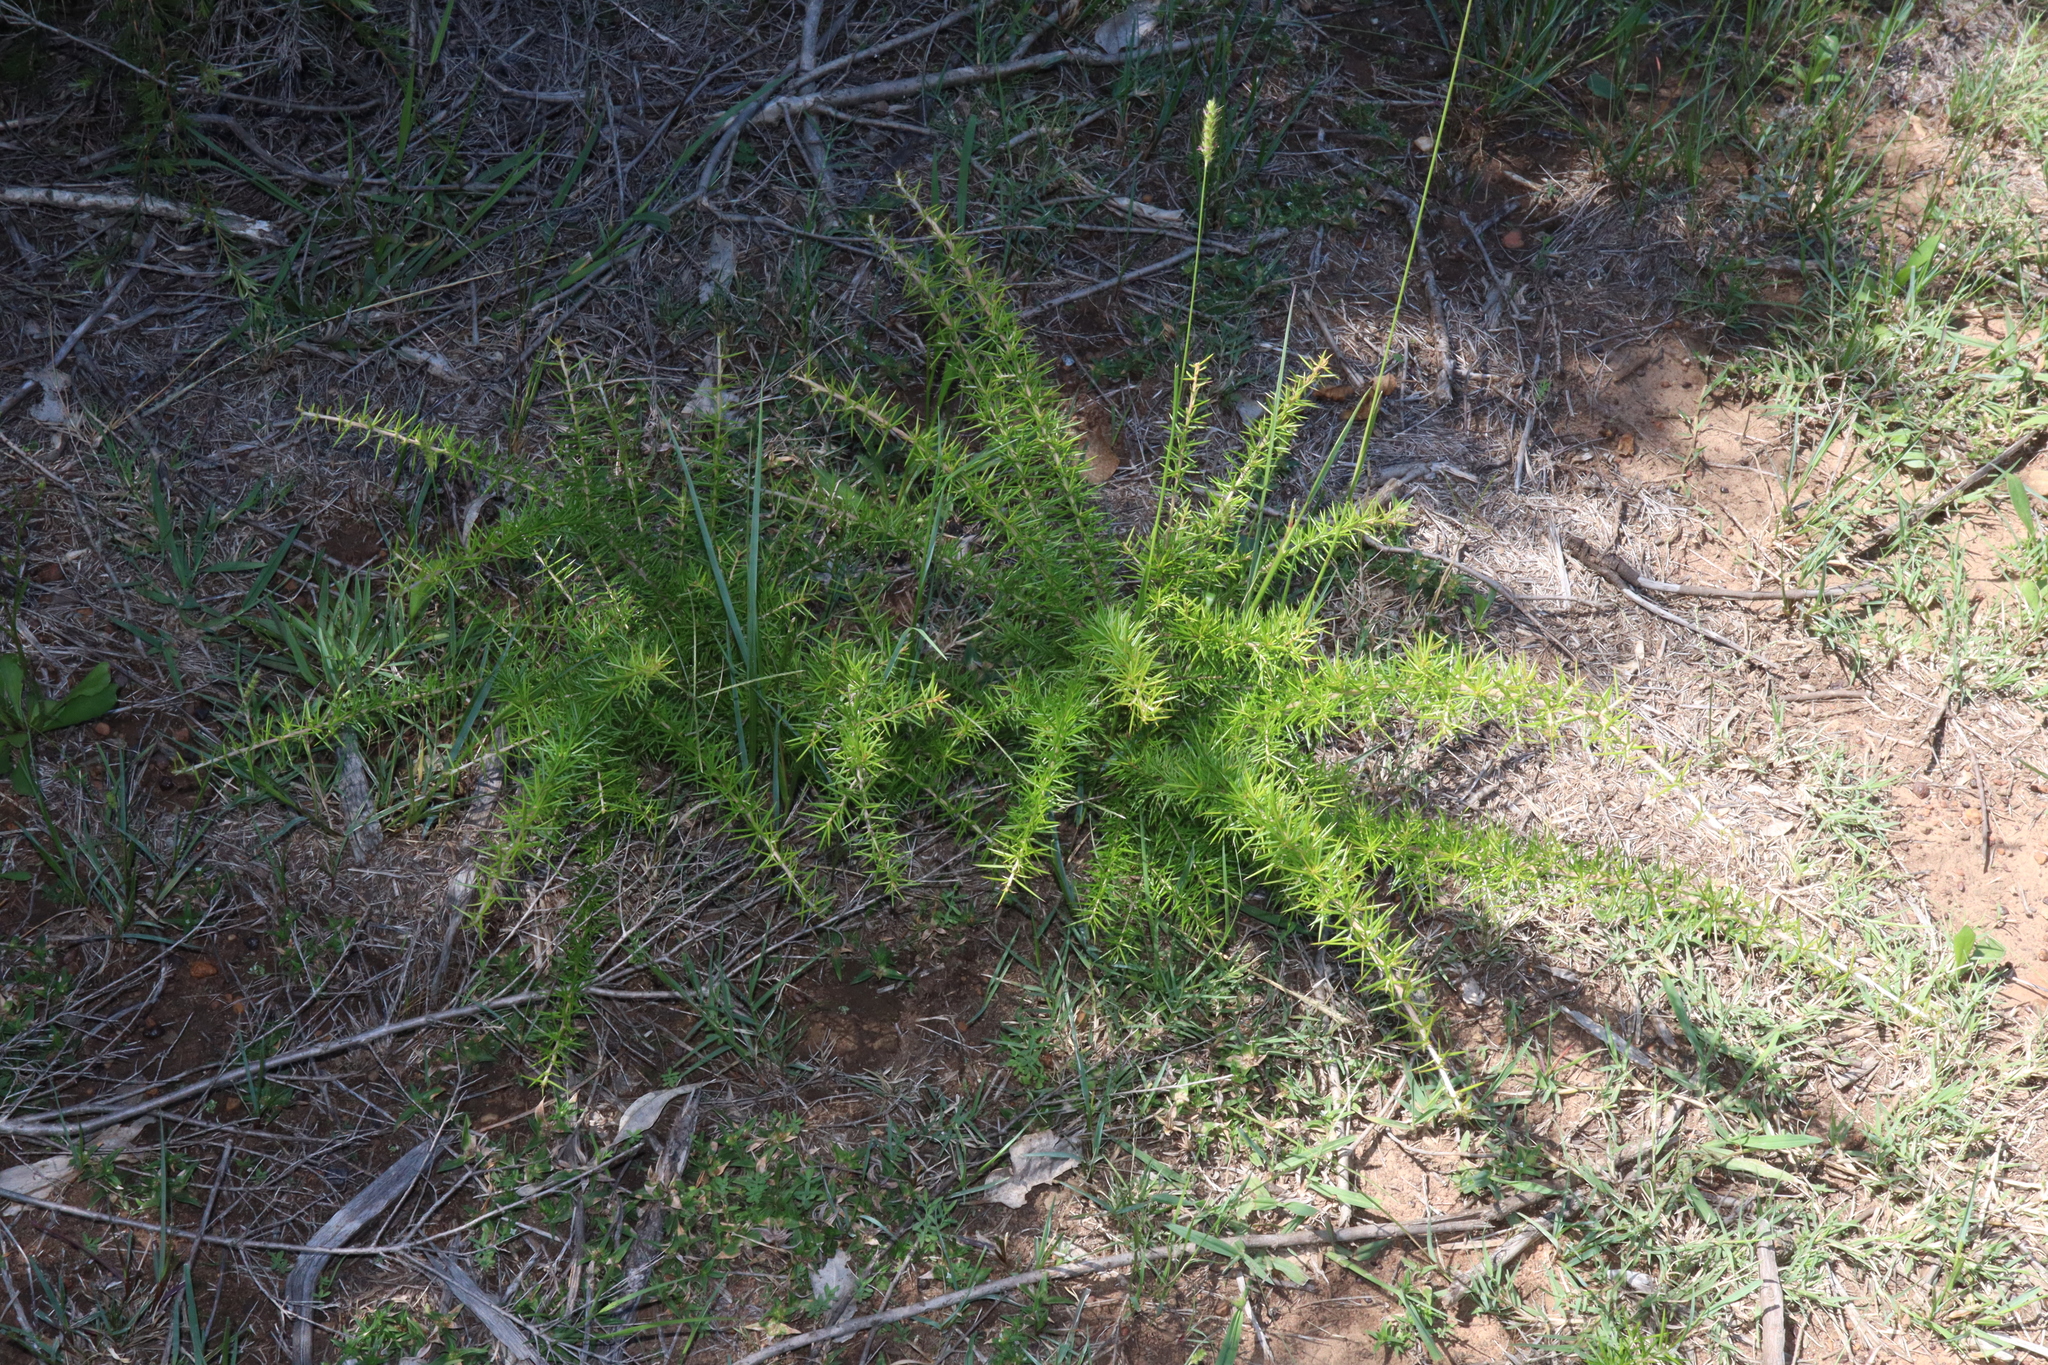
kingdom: Plantae
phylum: Tracheophyta
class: Magnoliopsida
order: Proteales
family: Proteaceae
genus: Grevillea
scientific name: Grevillea juniperina
